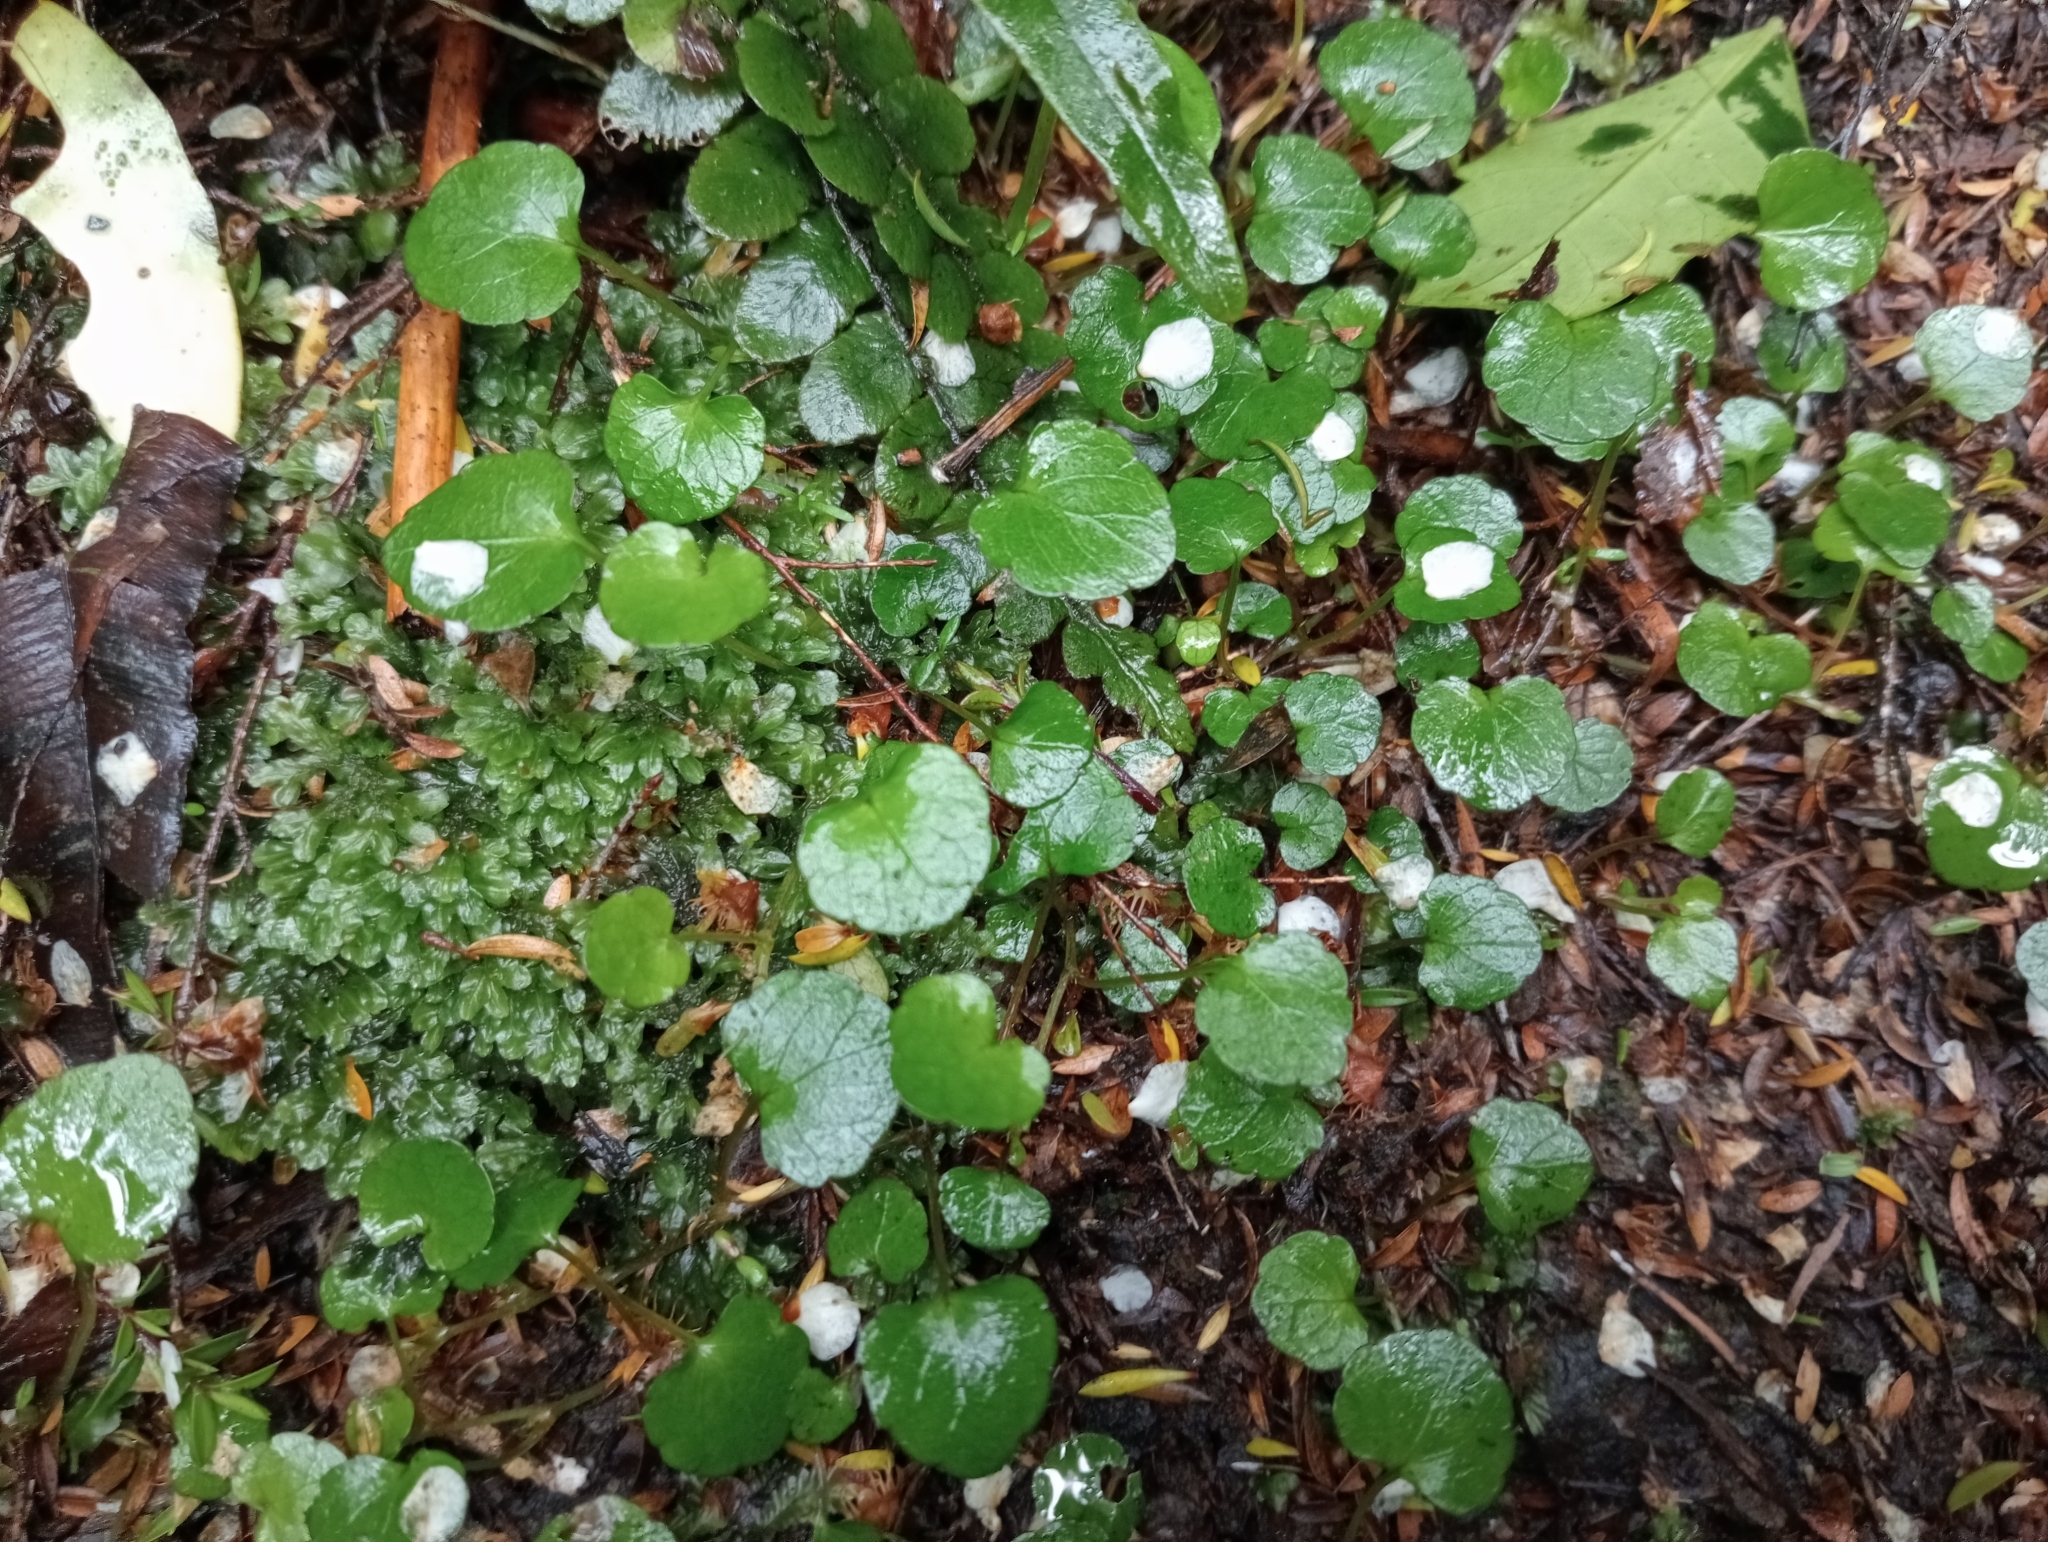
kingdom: Plantae
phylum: Tracheophyta
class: Magnoliopsida
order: Malpighiales
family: Violaceae
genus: Viola
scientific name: Viola filicaulis
